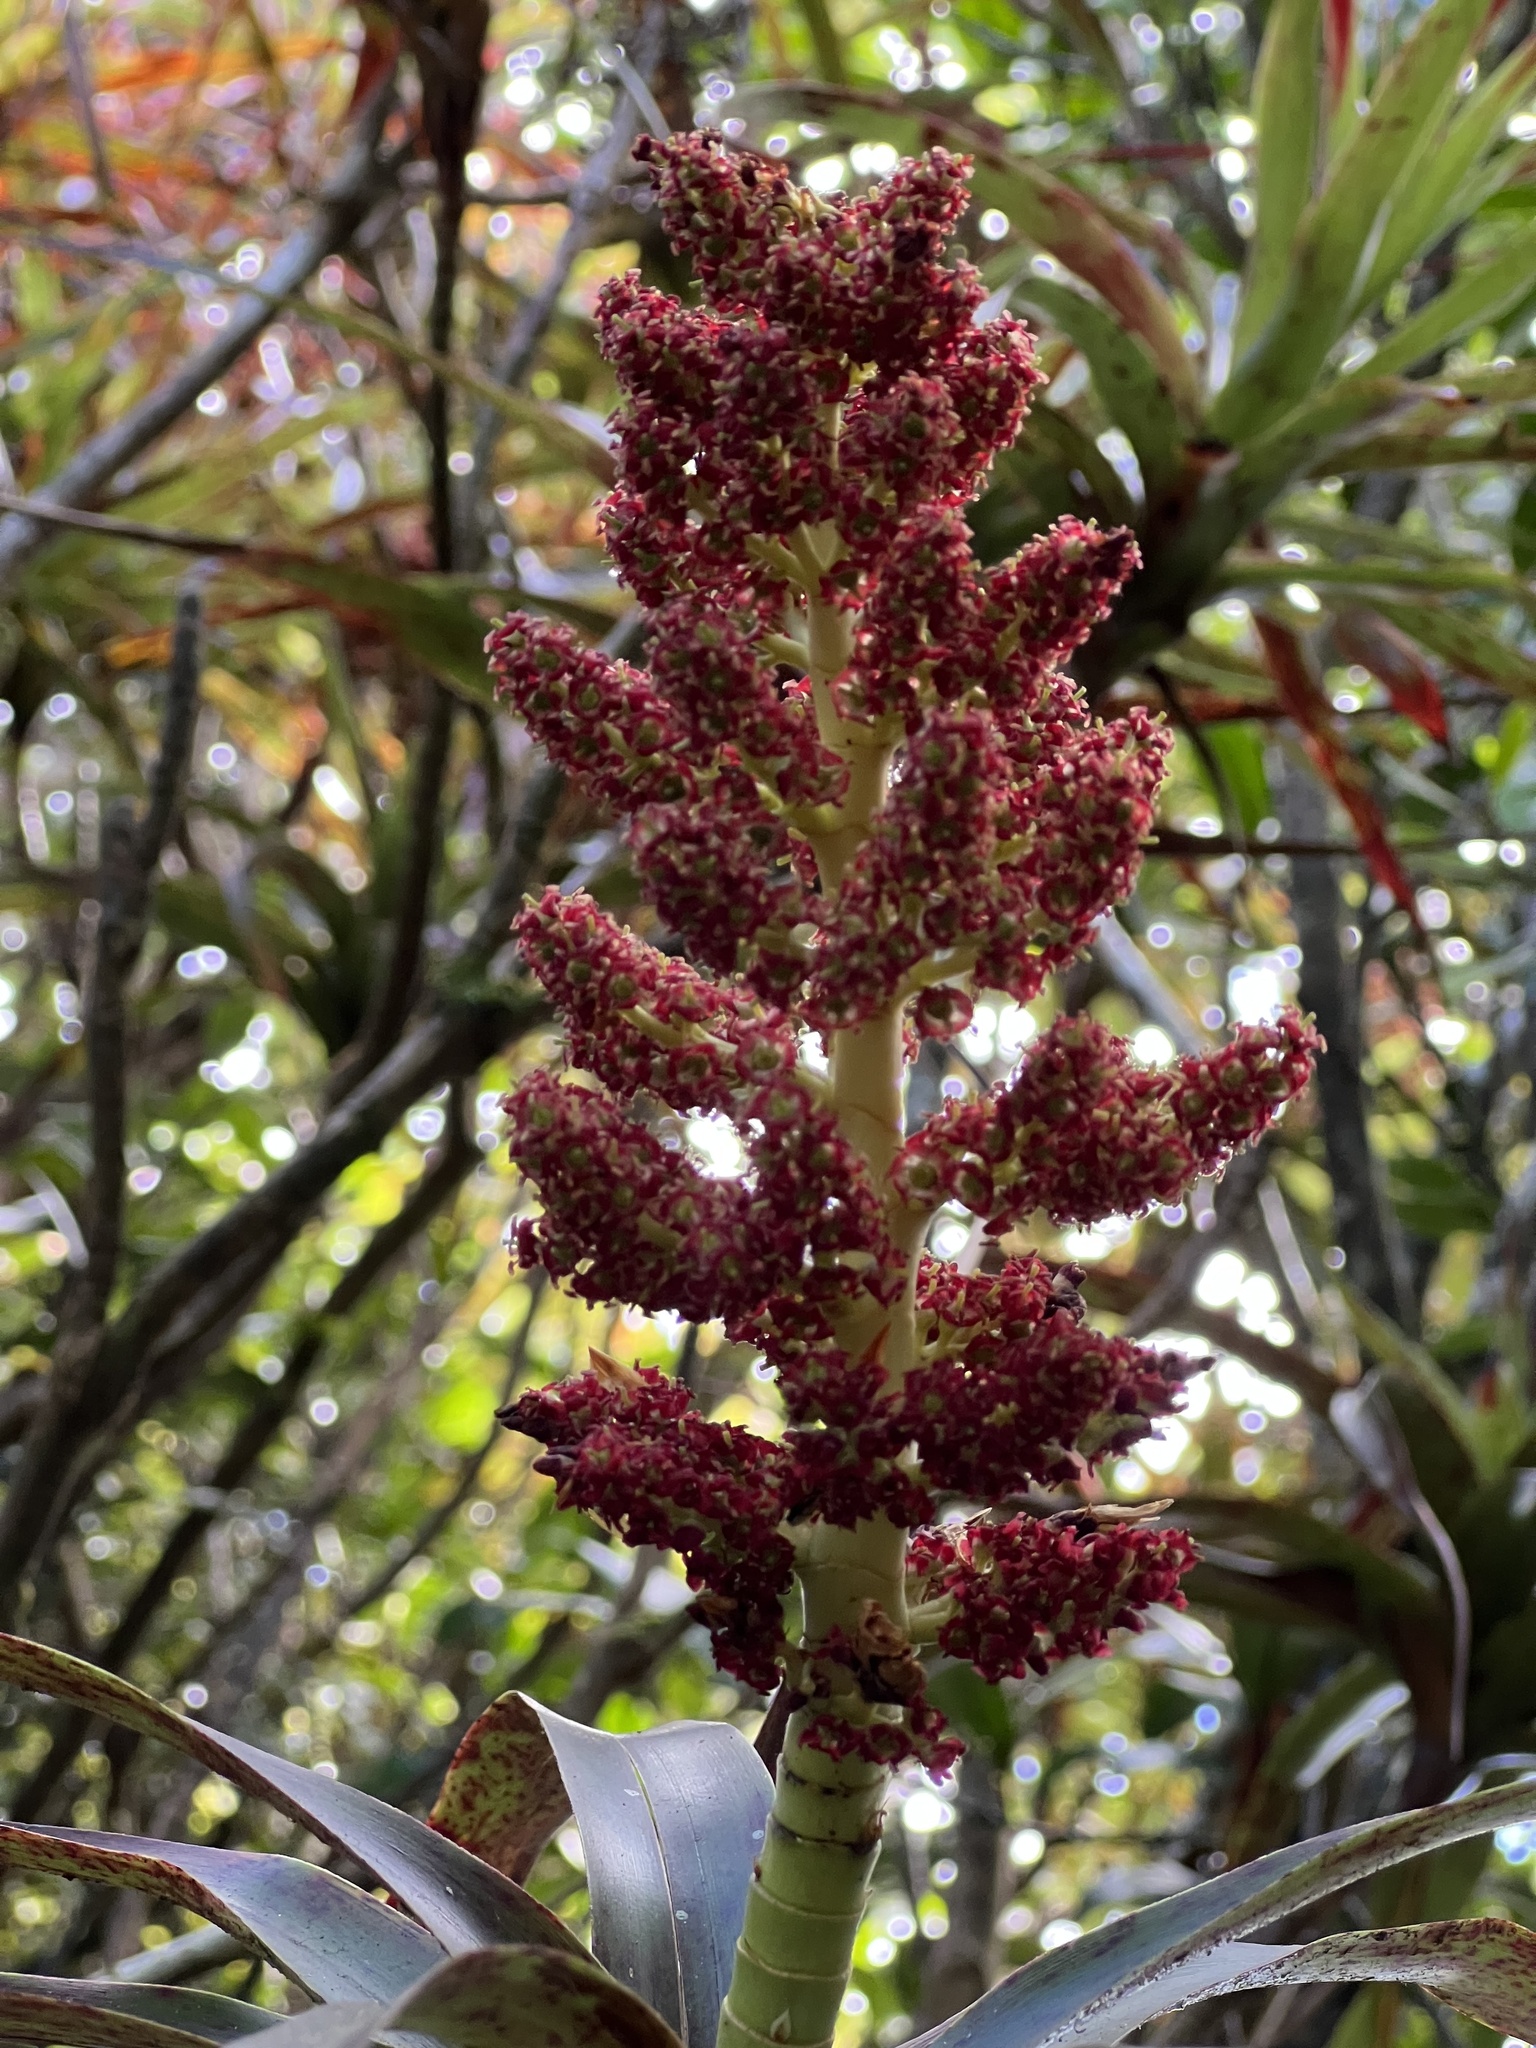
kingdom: Plantae
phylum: Tracheophyta
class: Magnoliopsida
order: Ericales
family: Ericaceae
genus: Dracophyllum
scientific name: Dracophyllum traversii
